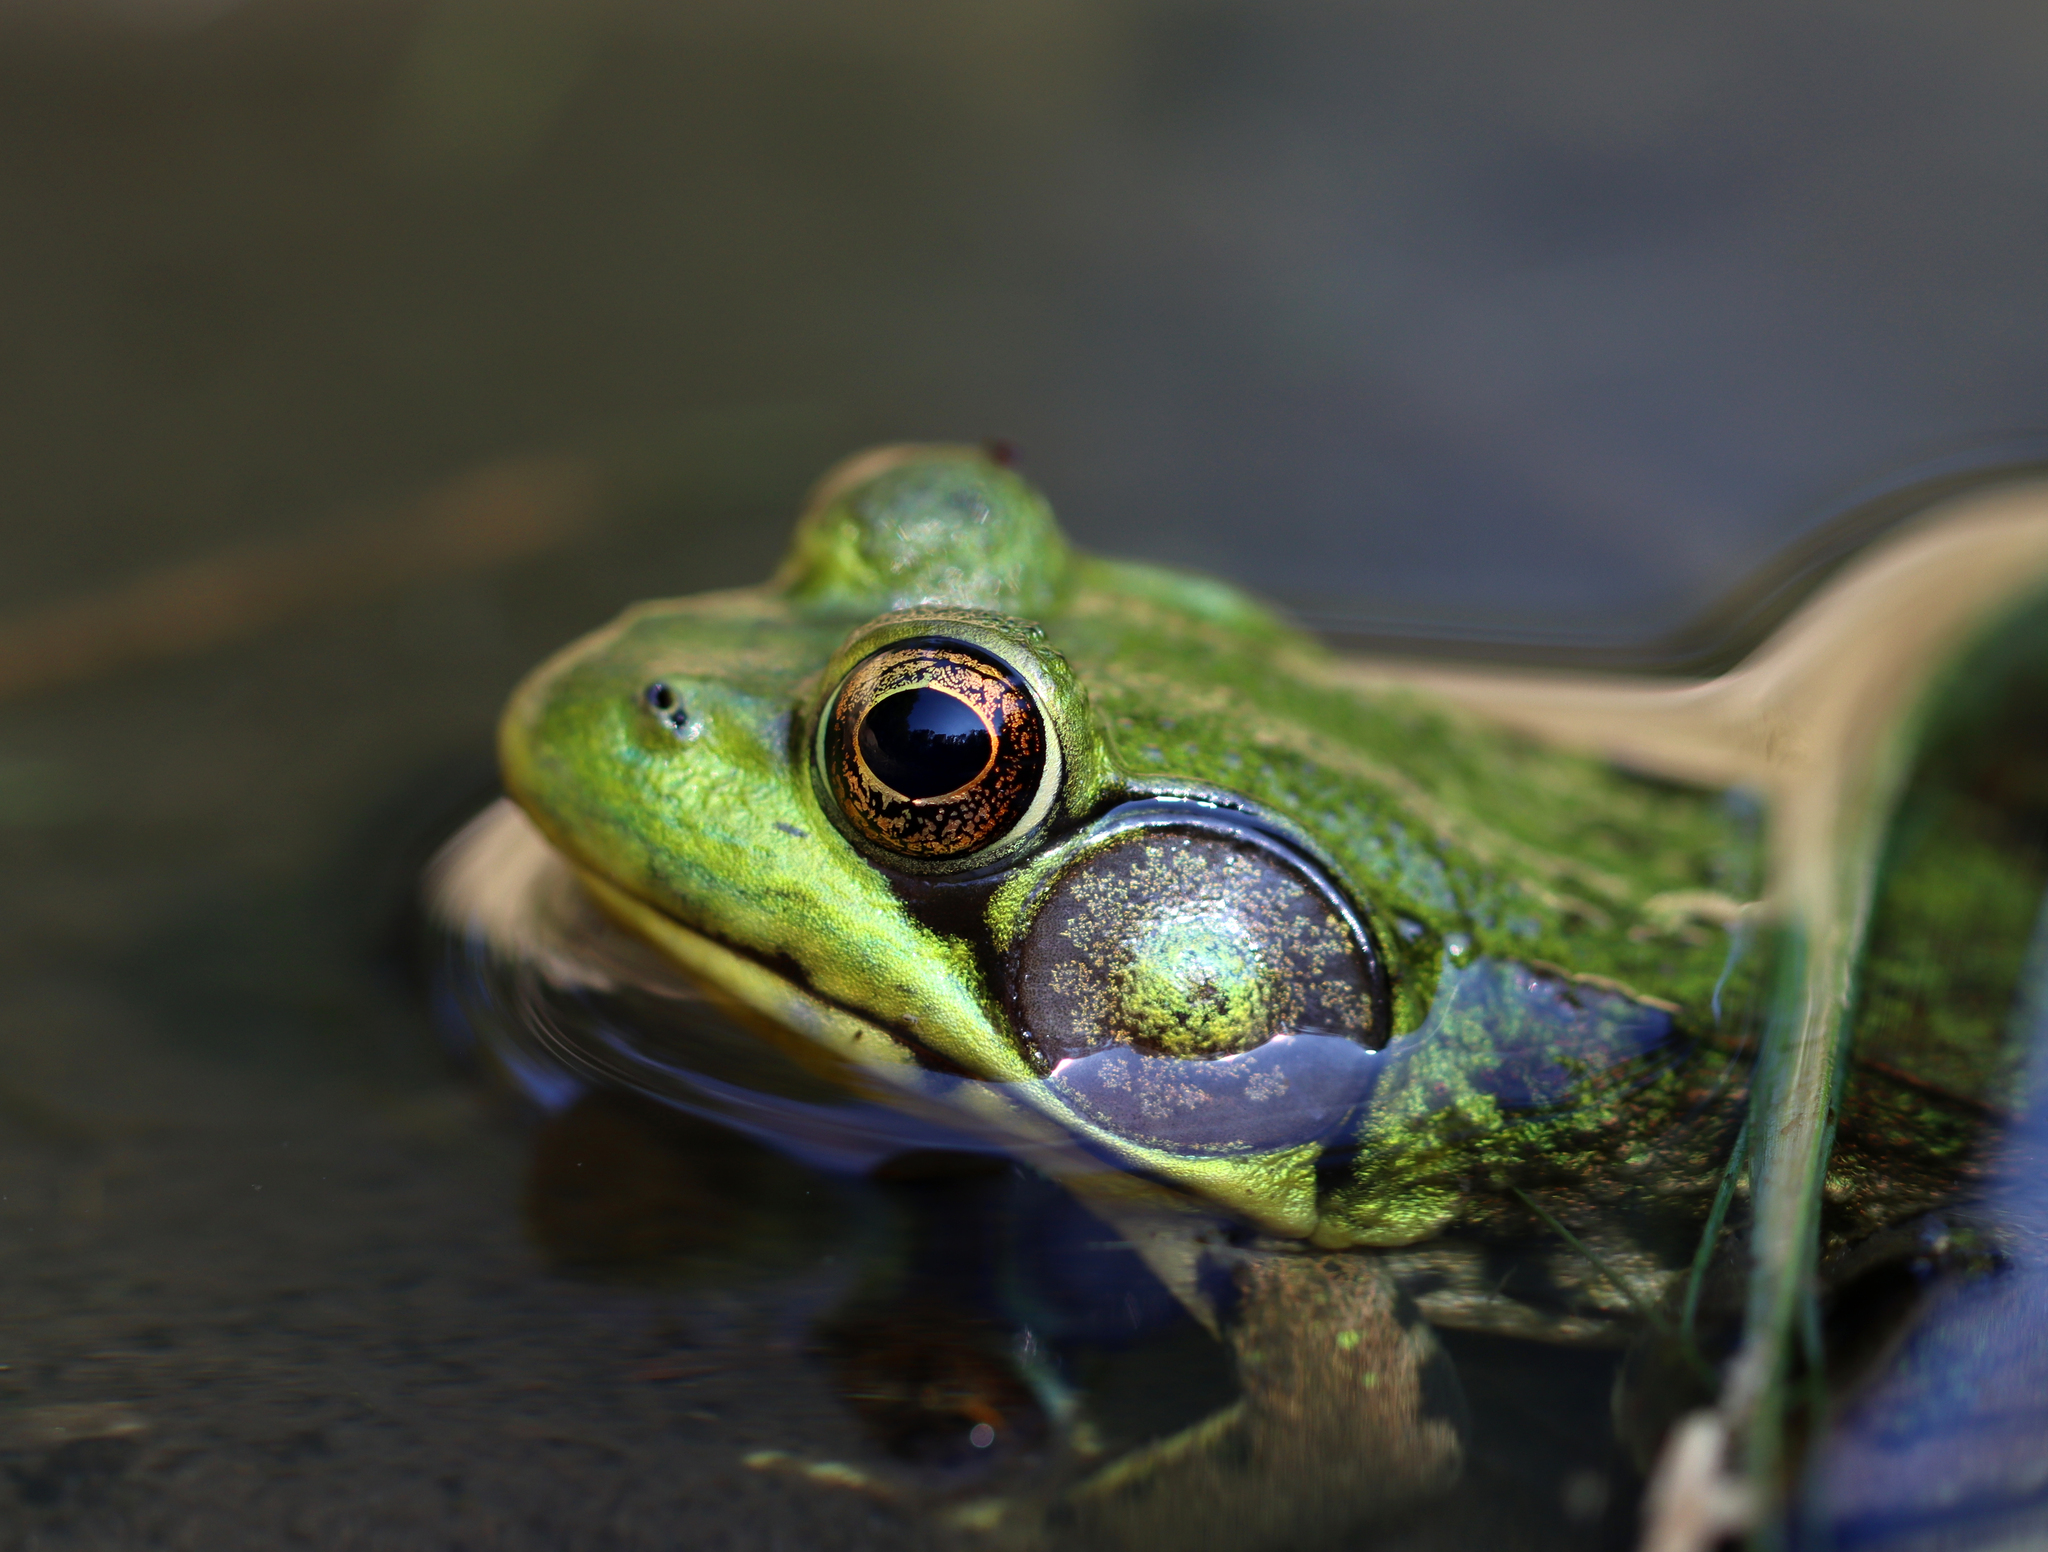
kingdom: Animalia
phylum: Chordata
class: Amphibia
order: Anura
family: Ranidae
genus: Lithobates
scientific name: Lithobates clamitans
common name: Green frog
